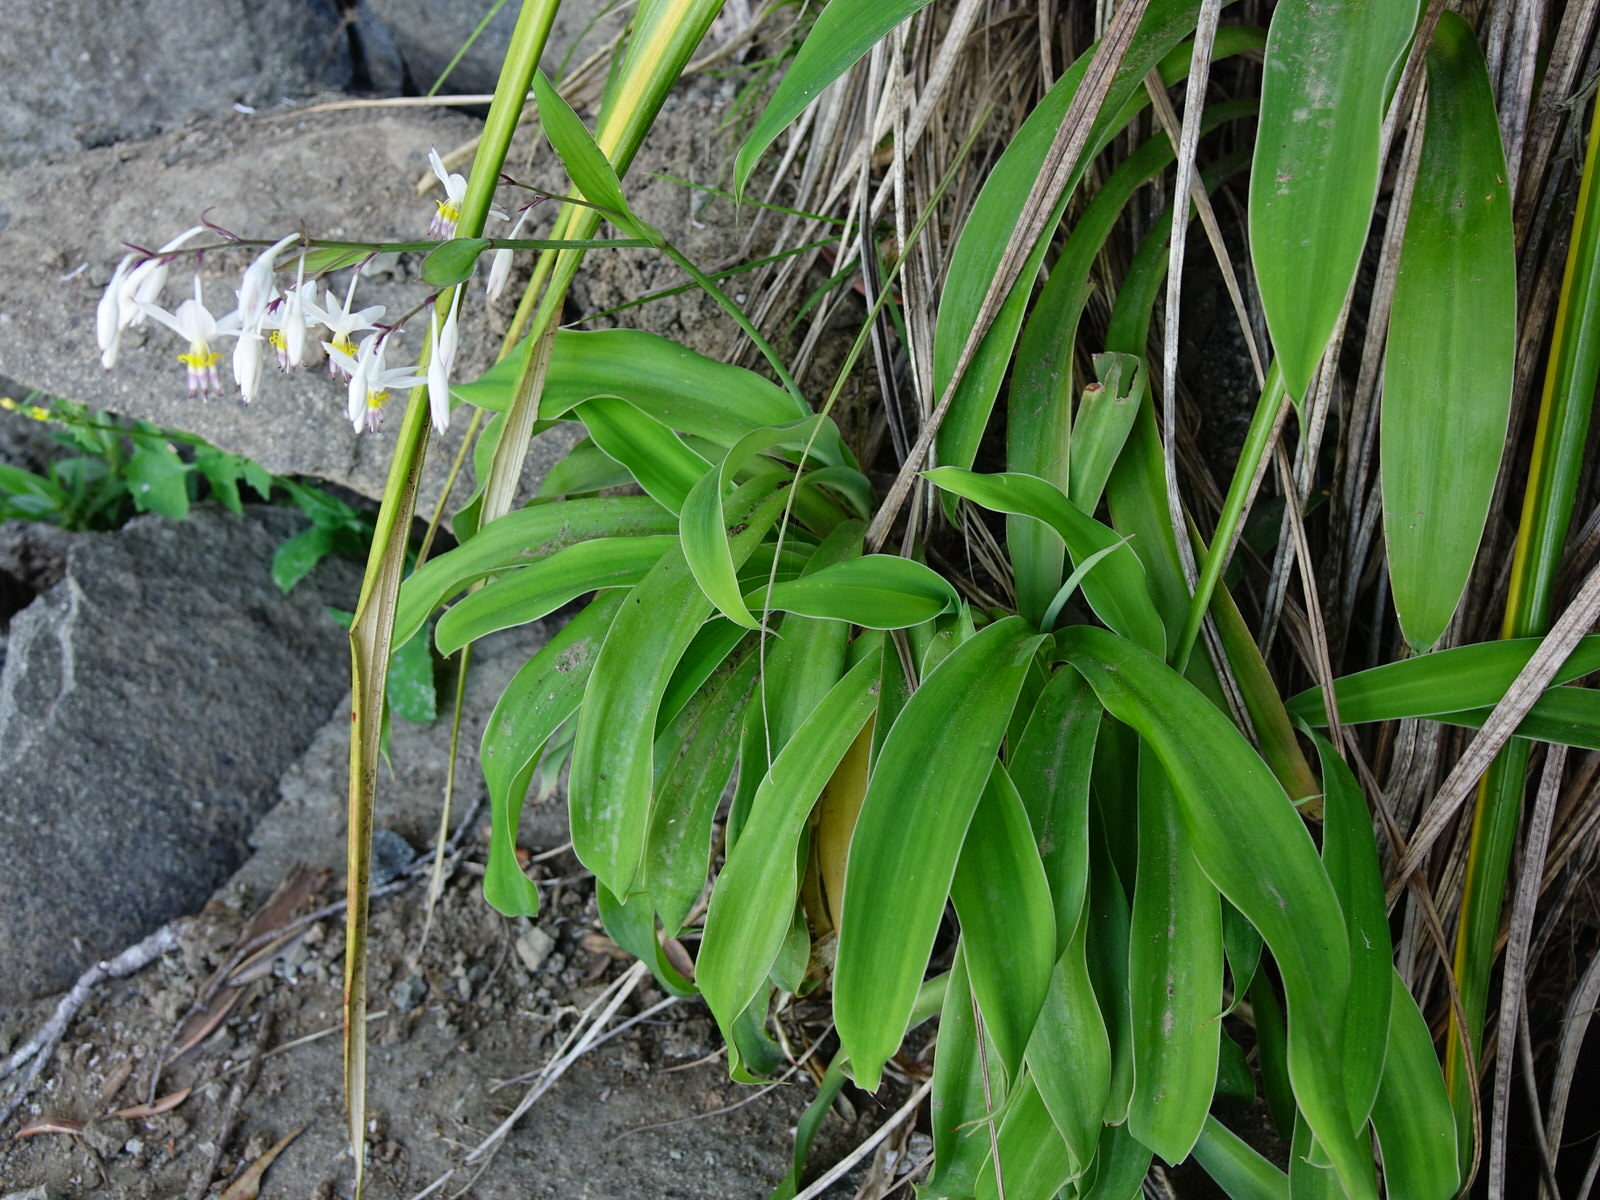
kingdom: Plantae
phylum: Tracheophyta
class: Liliopsida
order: Asparagales
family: Asparagaceae
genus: Arthropodium
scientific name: Arthropodium cirratum
